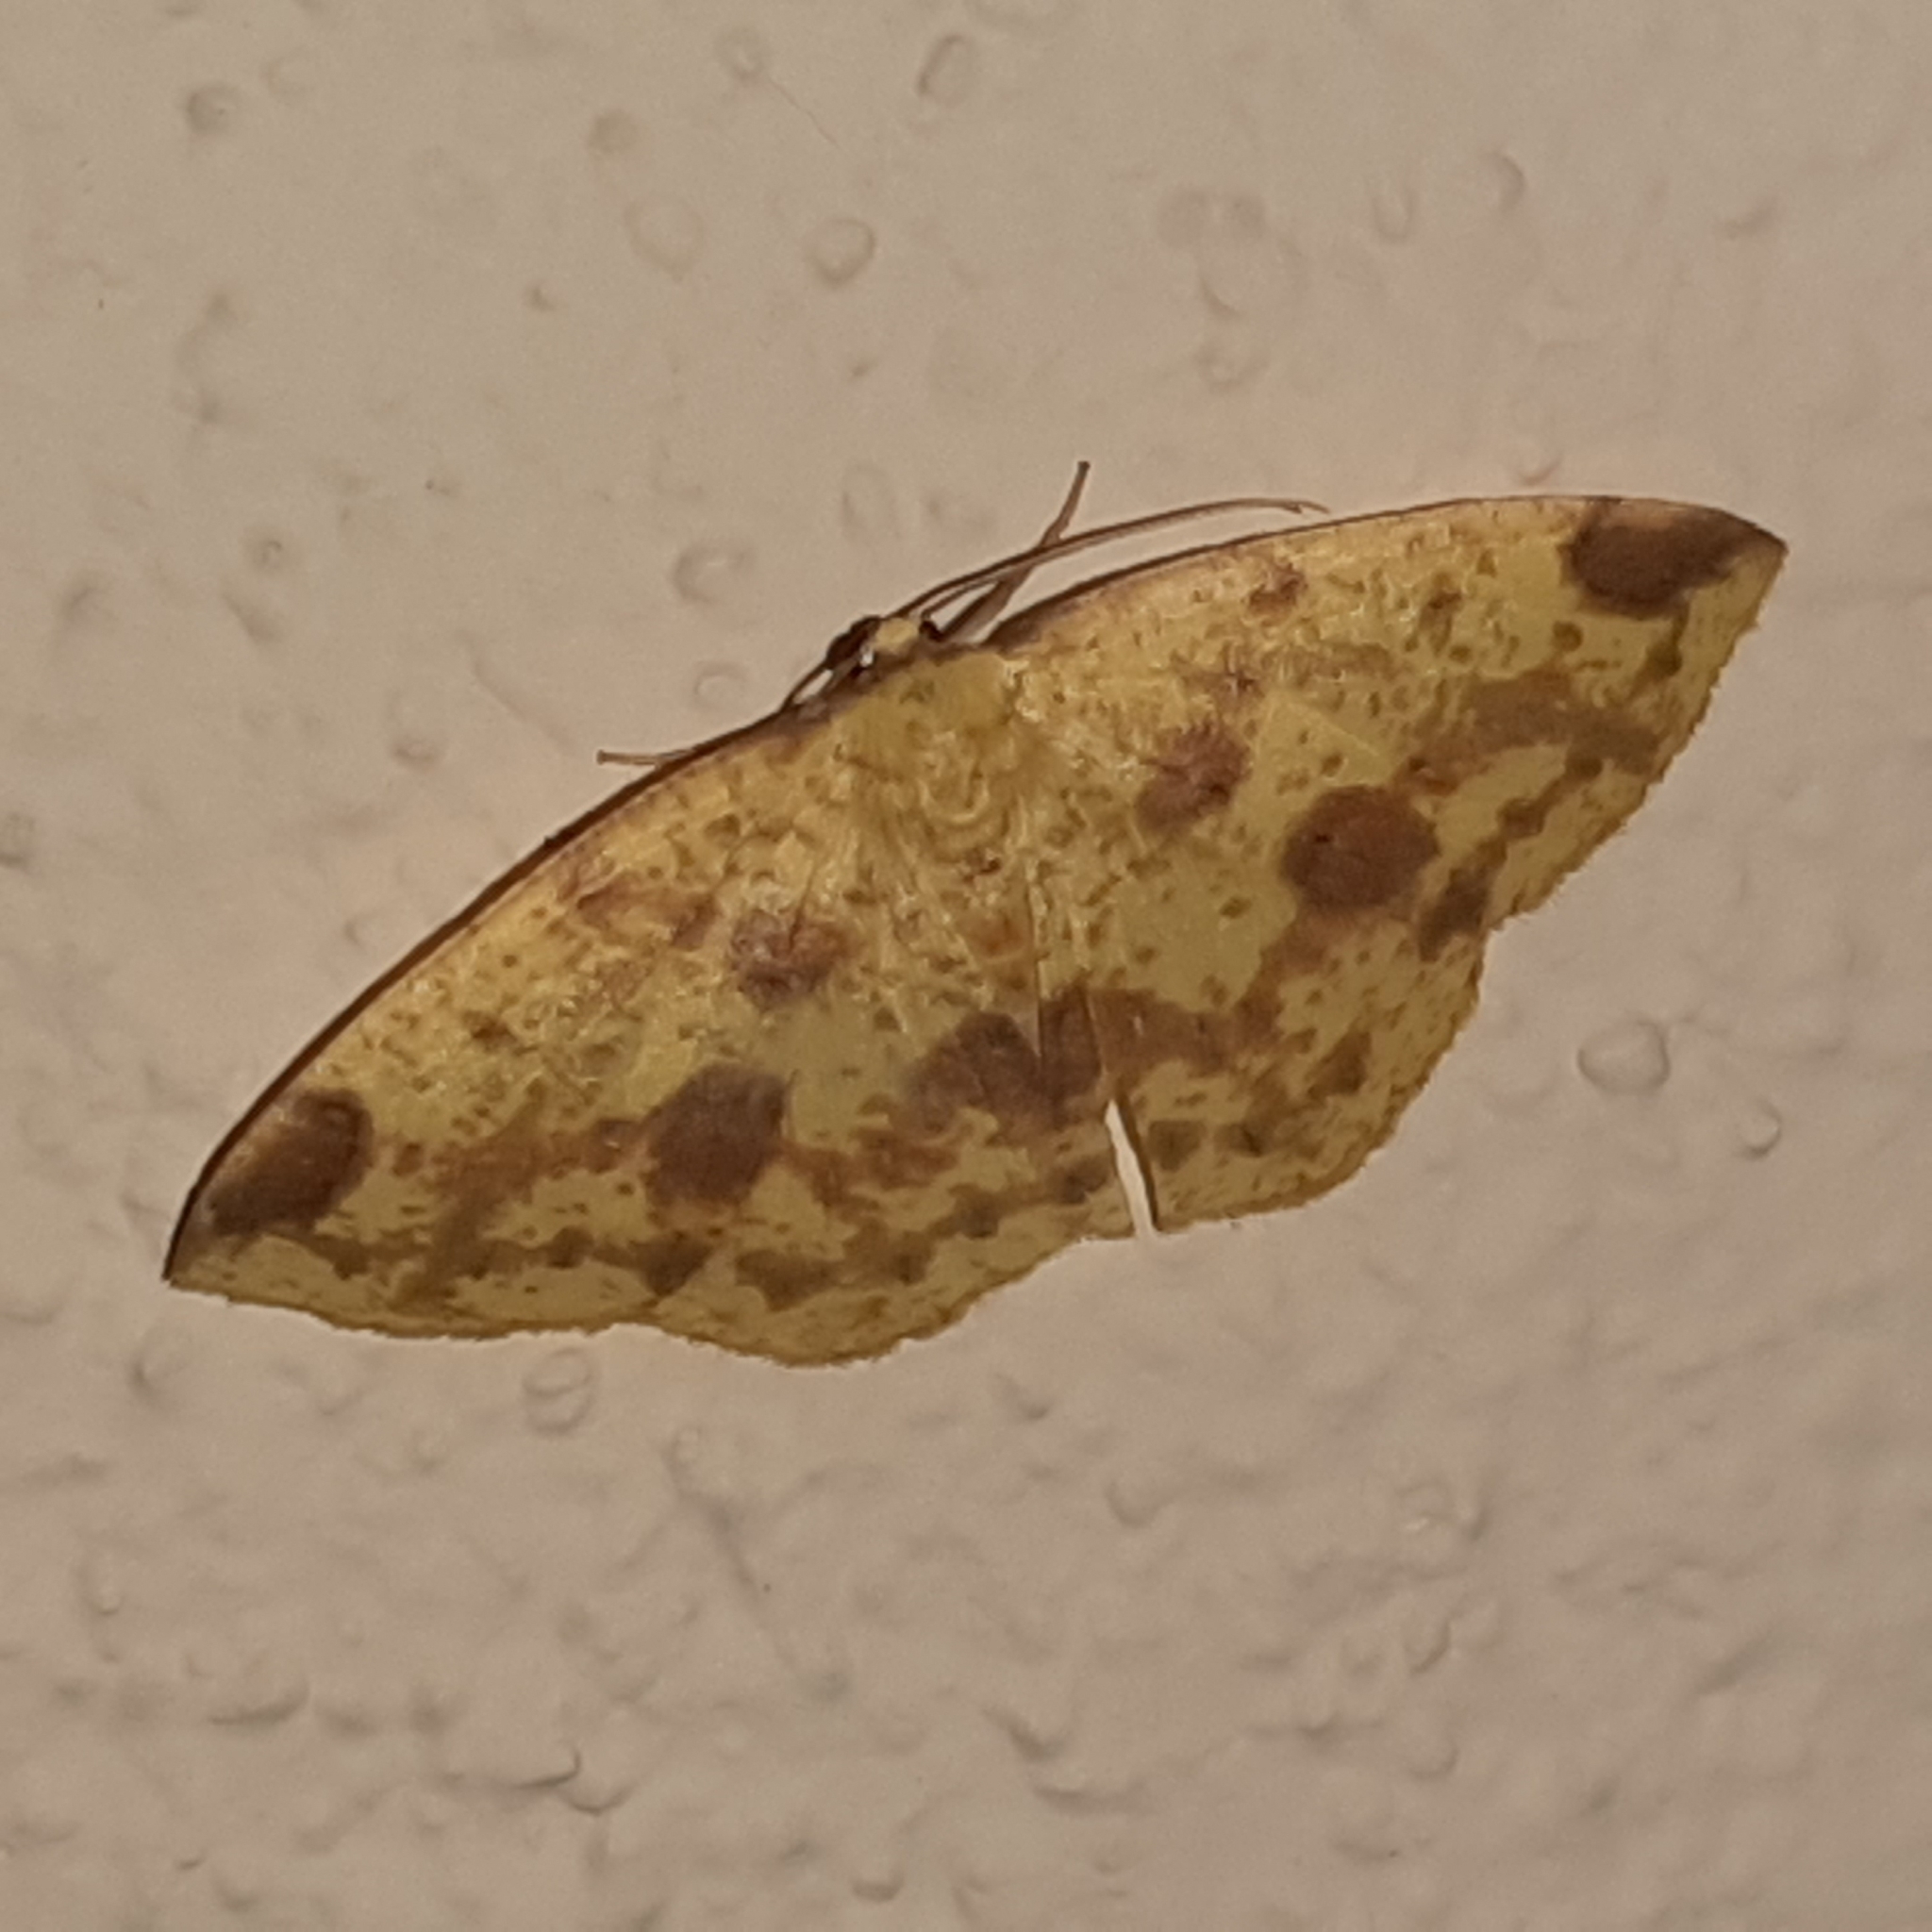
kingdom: Animalia
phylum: Arthropoda
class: Insecta
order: Lepidoptera
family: Geometridae
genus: Periclina
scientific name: Periclina apricaria
